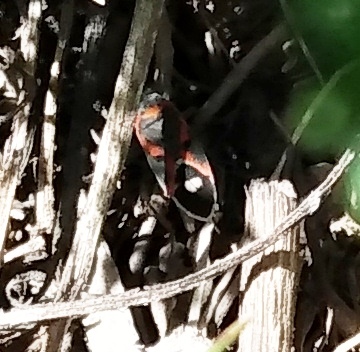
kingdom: Animalia
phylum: Arthropoda
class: Insecta
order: Hemiptera
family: Lygaeidae
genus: Lygaeus
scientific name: Lygaeus kalmii
